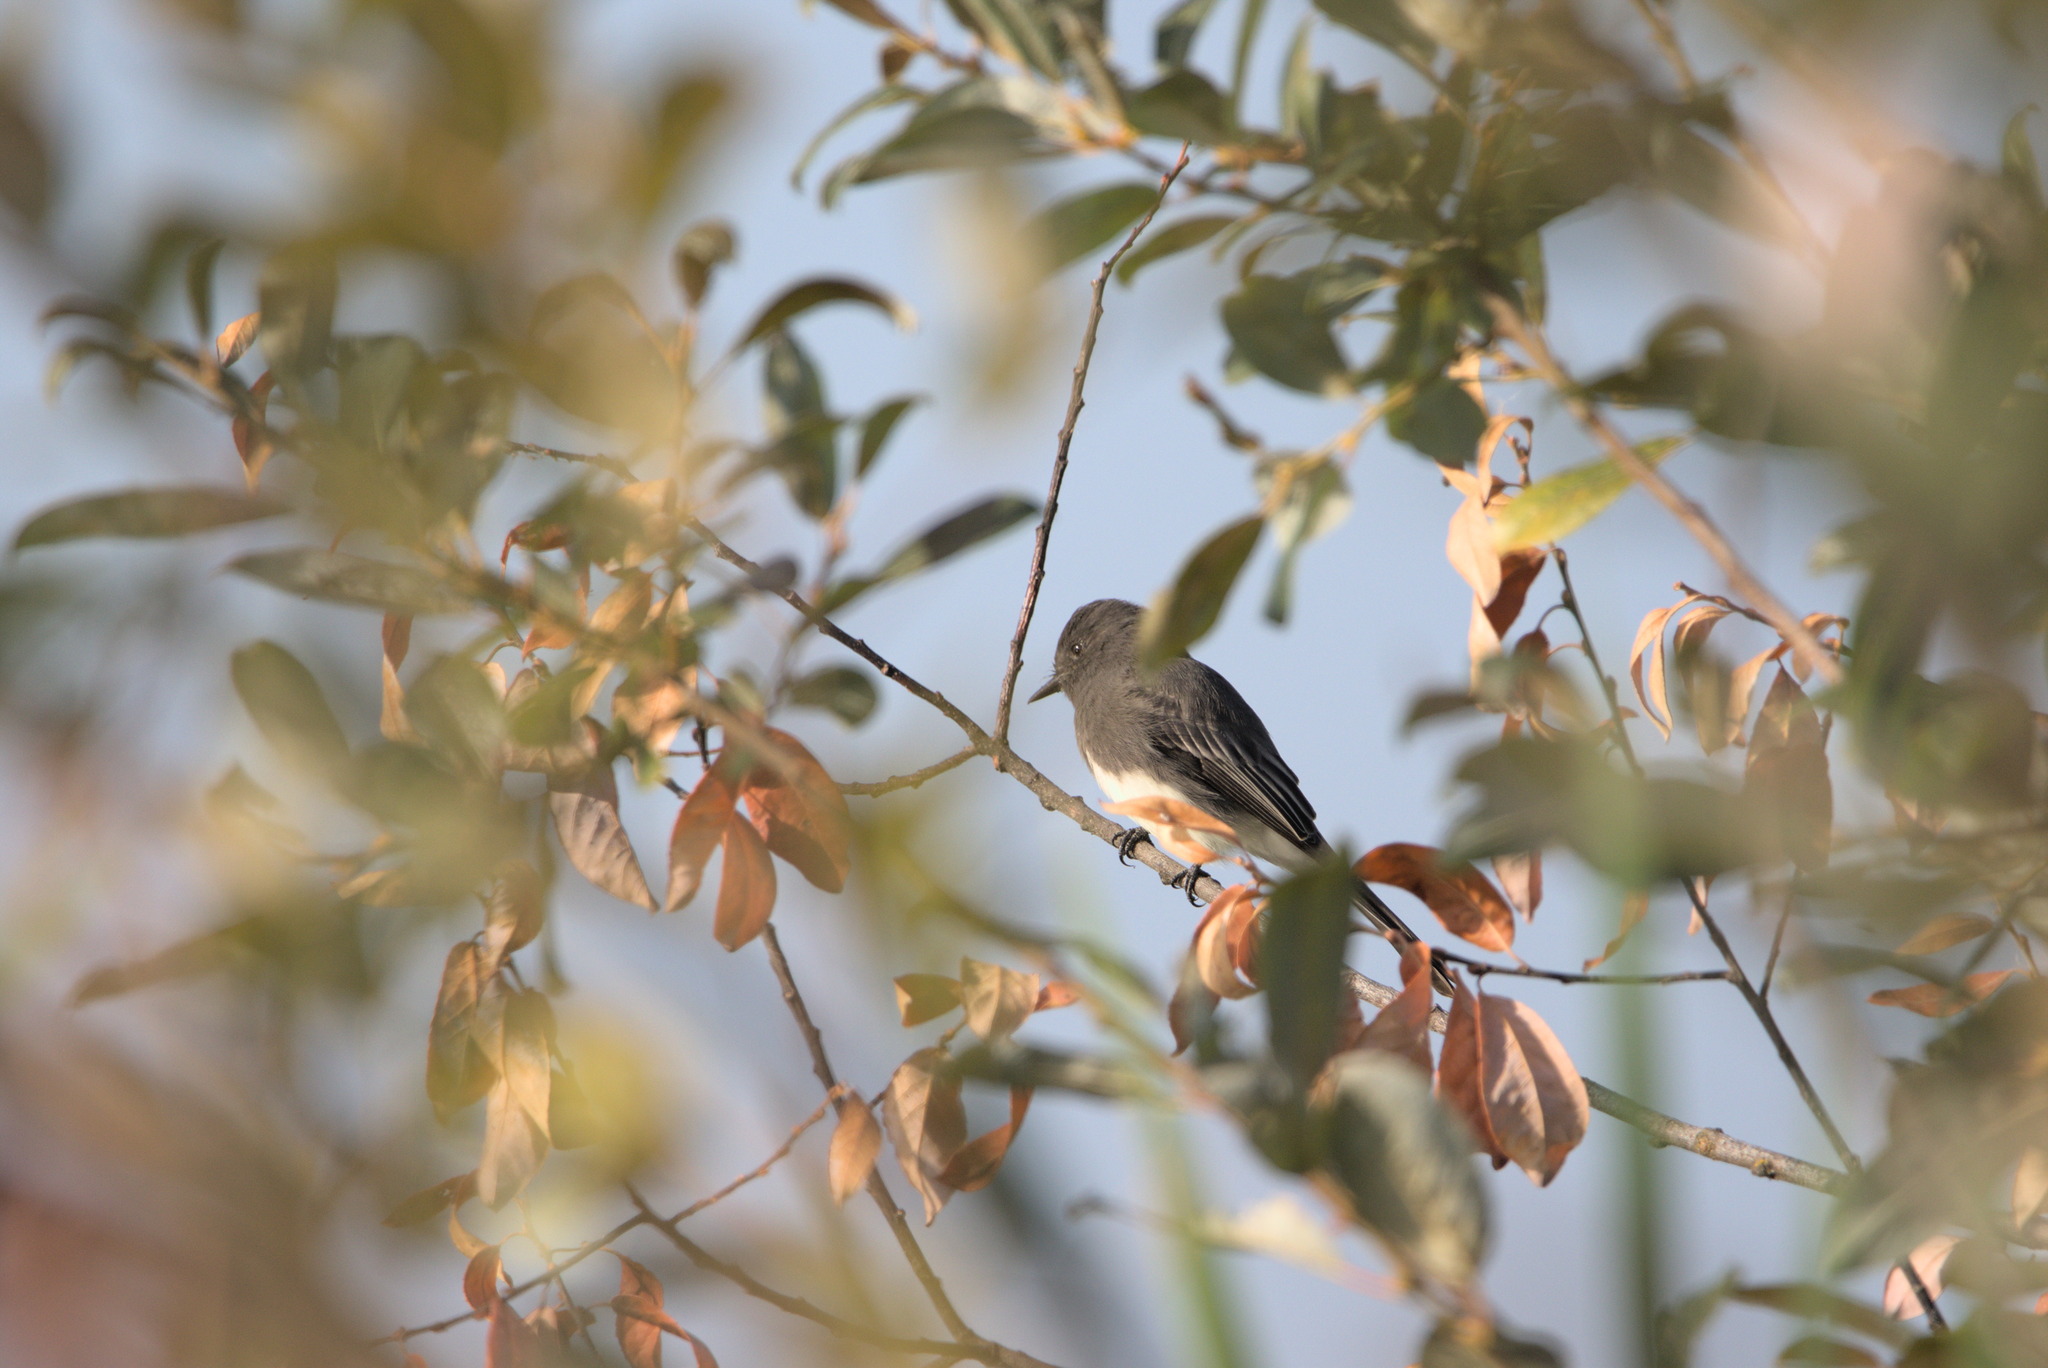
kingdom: Animalia
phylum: Chordata
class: Aves
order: Passeriformes
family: Tyrannidae
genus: Sayornis
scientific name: Sayornis nigricans
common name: Black phoebe
